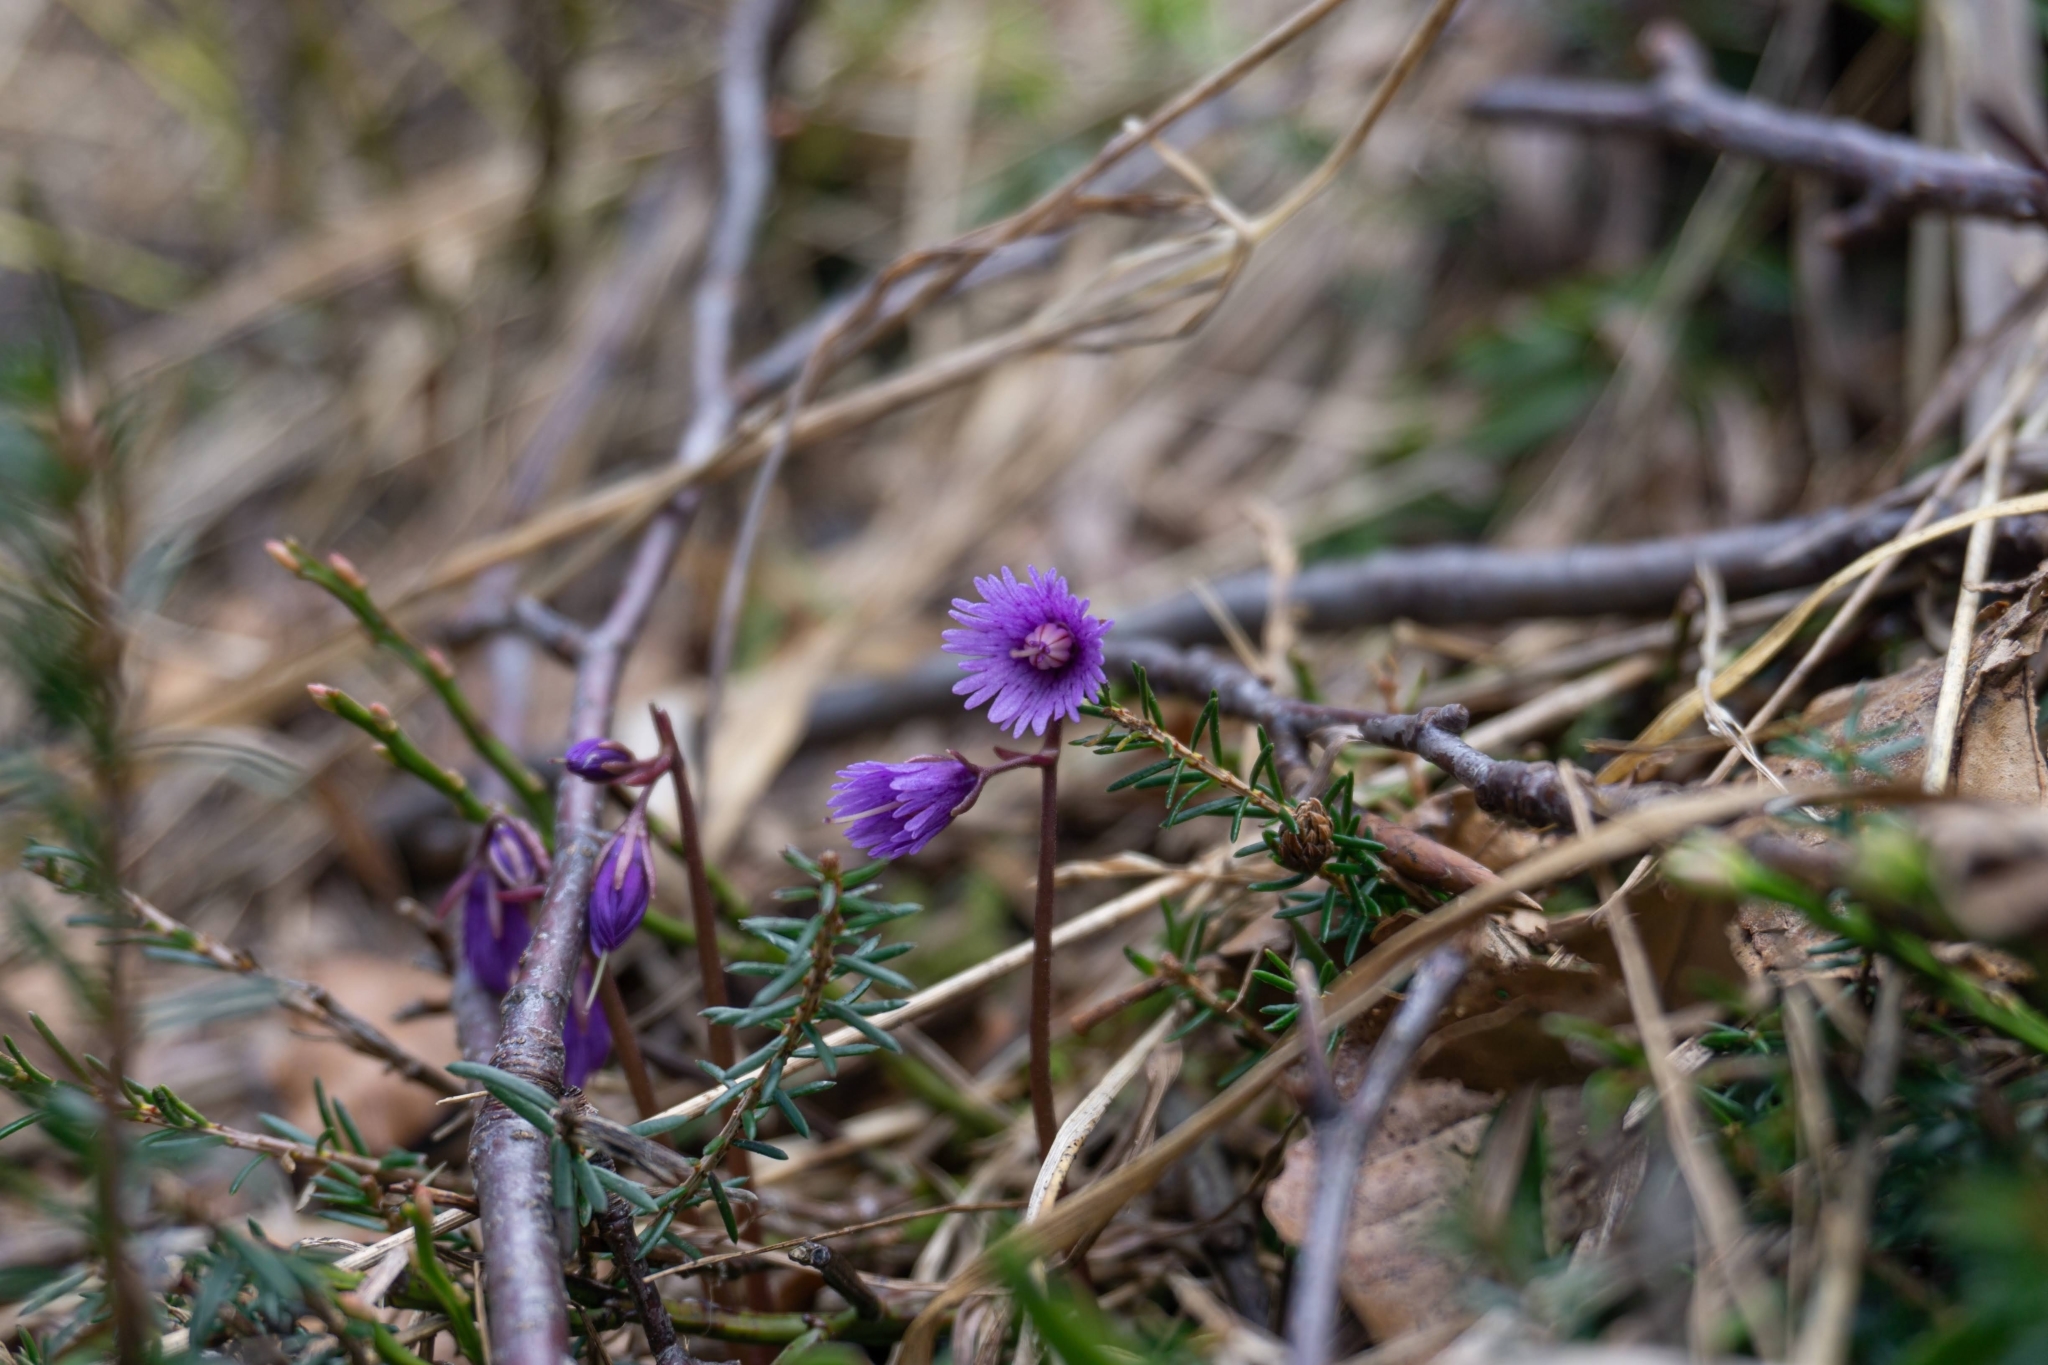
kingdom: Plantae
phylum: Tracheophyta
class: Magnoliopsida
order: Ericales
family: Primulaceae
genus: Soldanella
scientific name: Soldanella alpina
